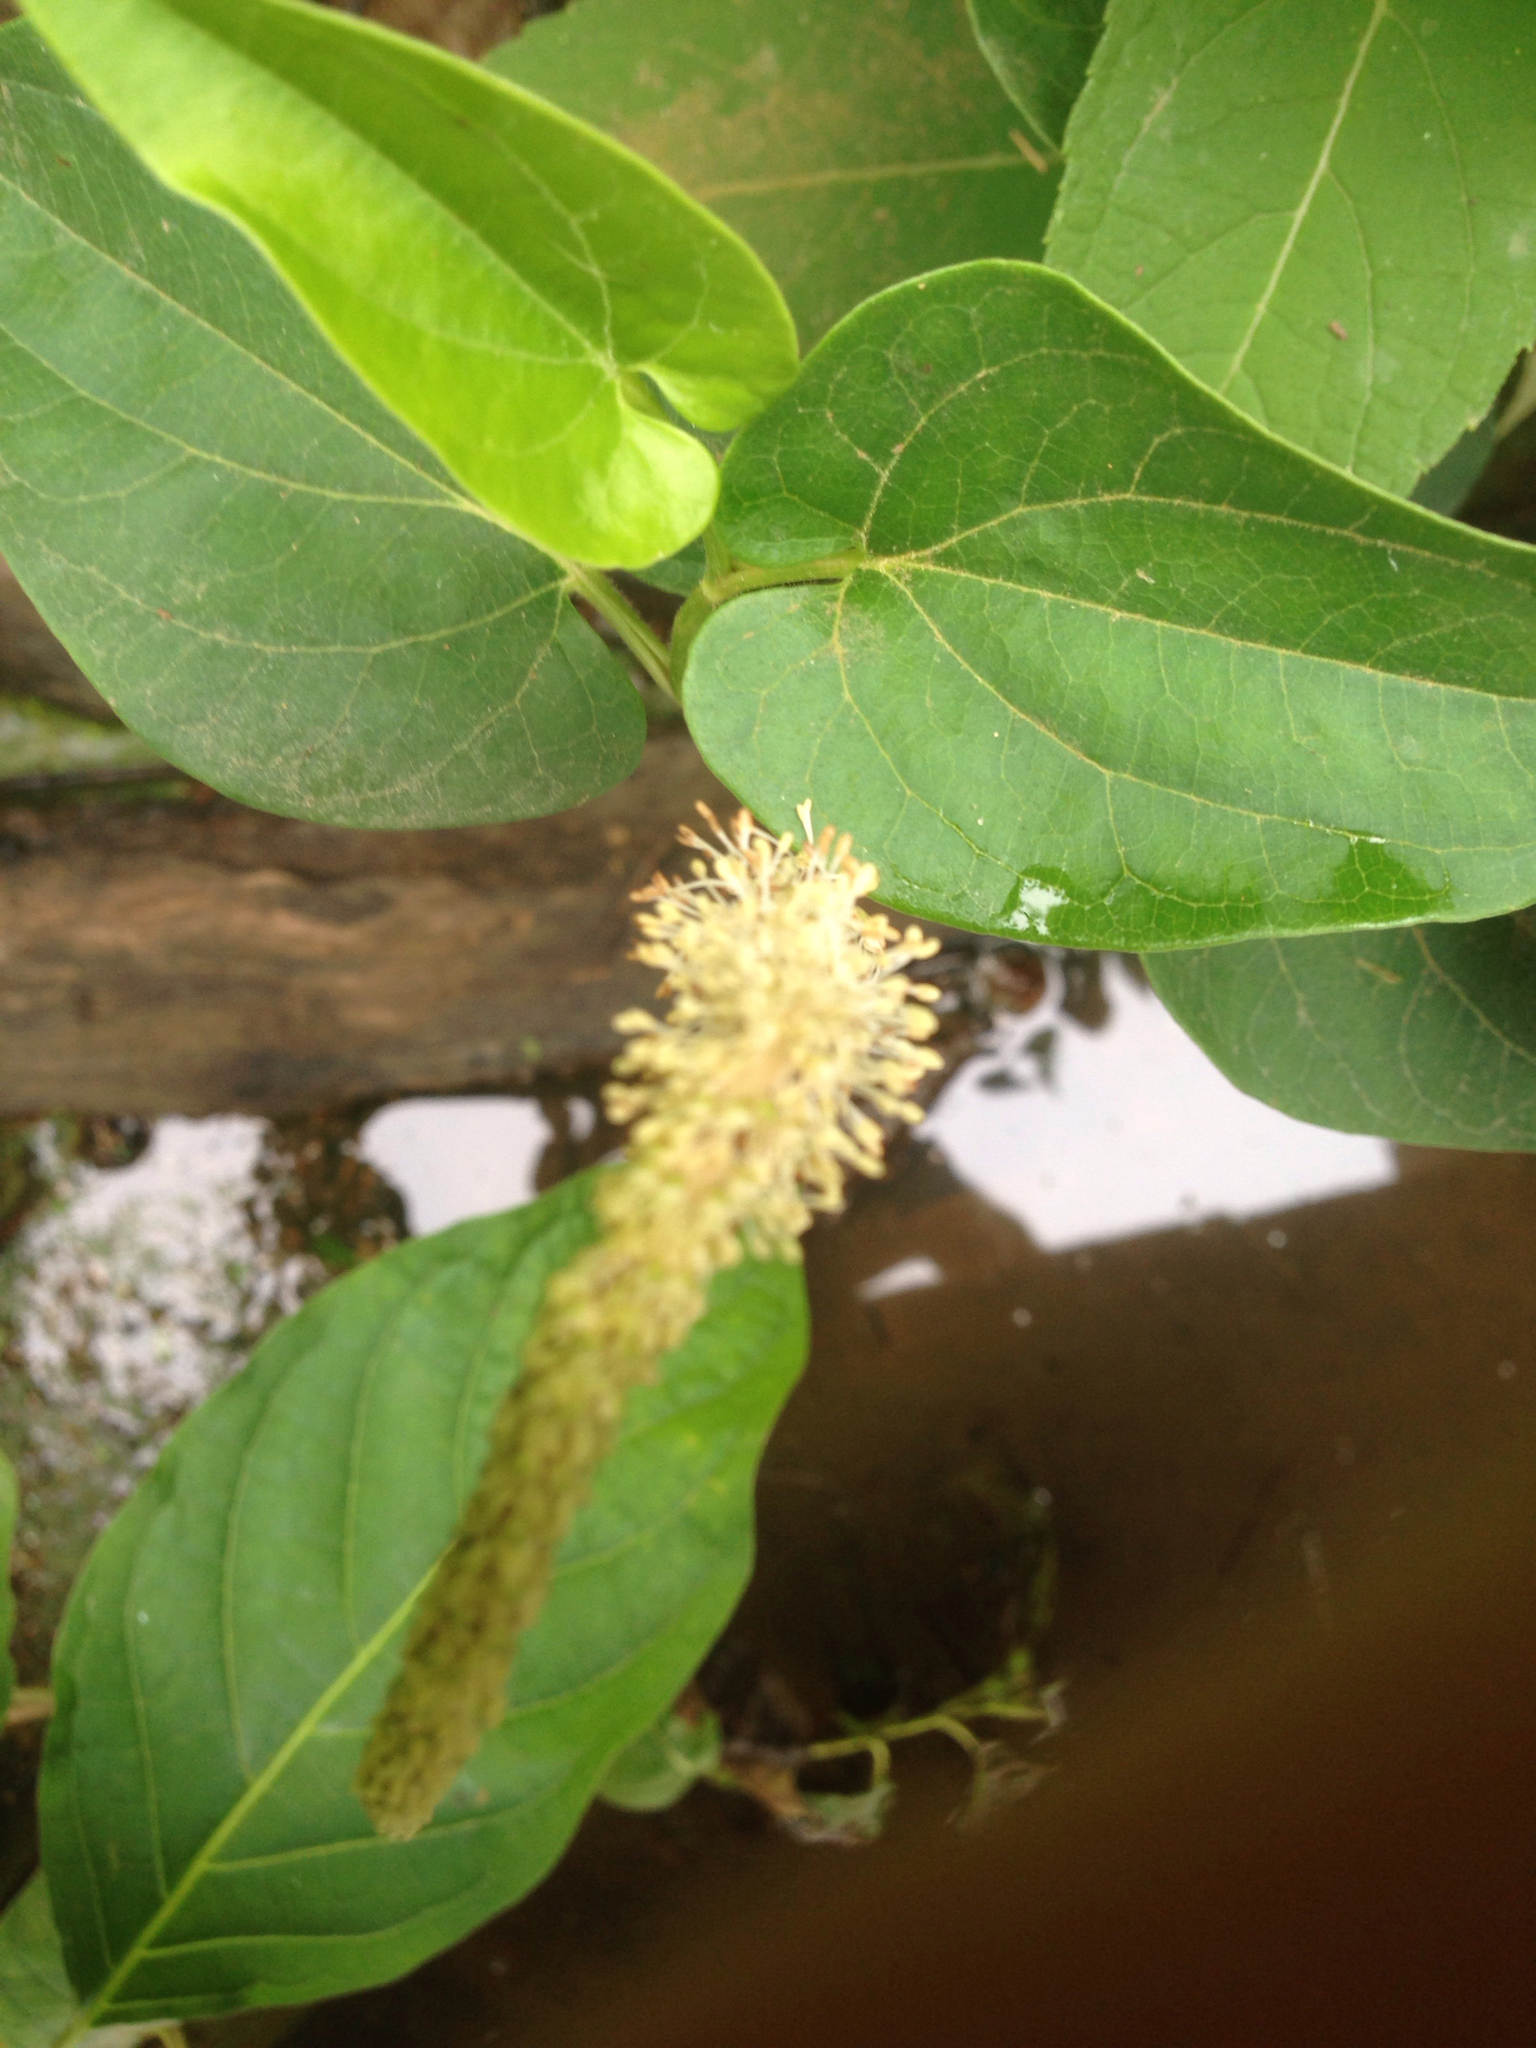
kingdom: Plantae
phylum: Tracheophyta
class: Magnoliopsida
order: Piperales
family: Saururaceae
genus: Saururus
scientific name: Saururus cernuus
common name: Lizard's-tail
